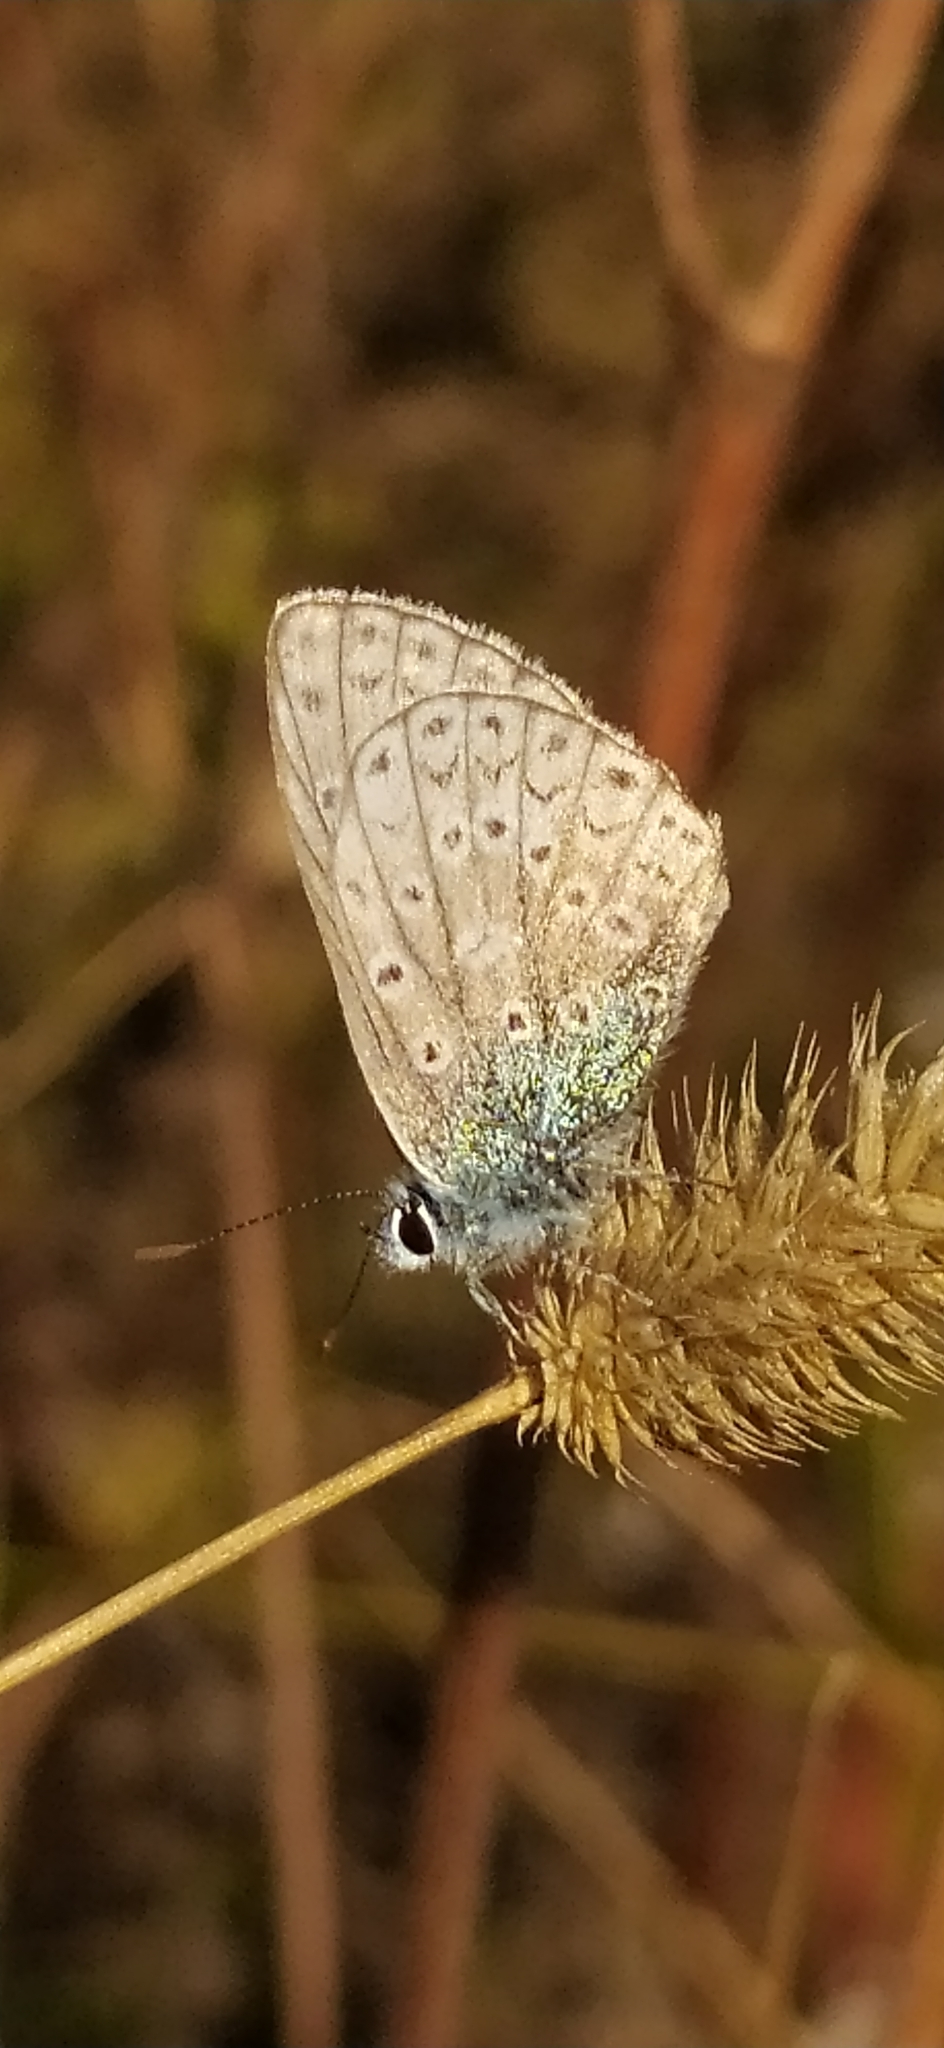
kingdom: Animalia
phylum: Arthropoda
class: Insecta
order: Lepidoptera
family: Lycaenidae
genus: Polyommatus
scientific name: Polyommatus icarus
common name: Common blue
